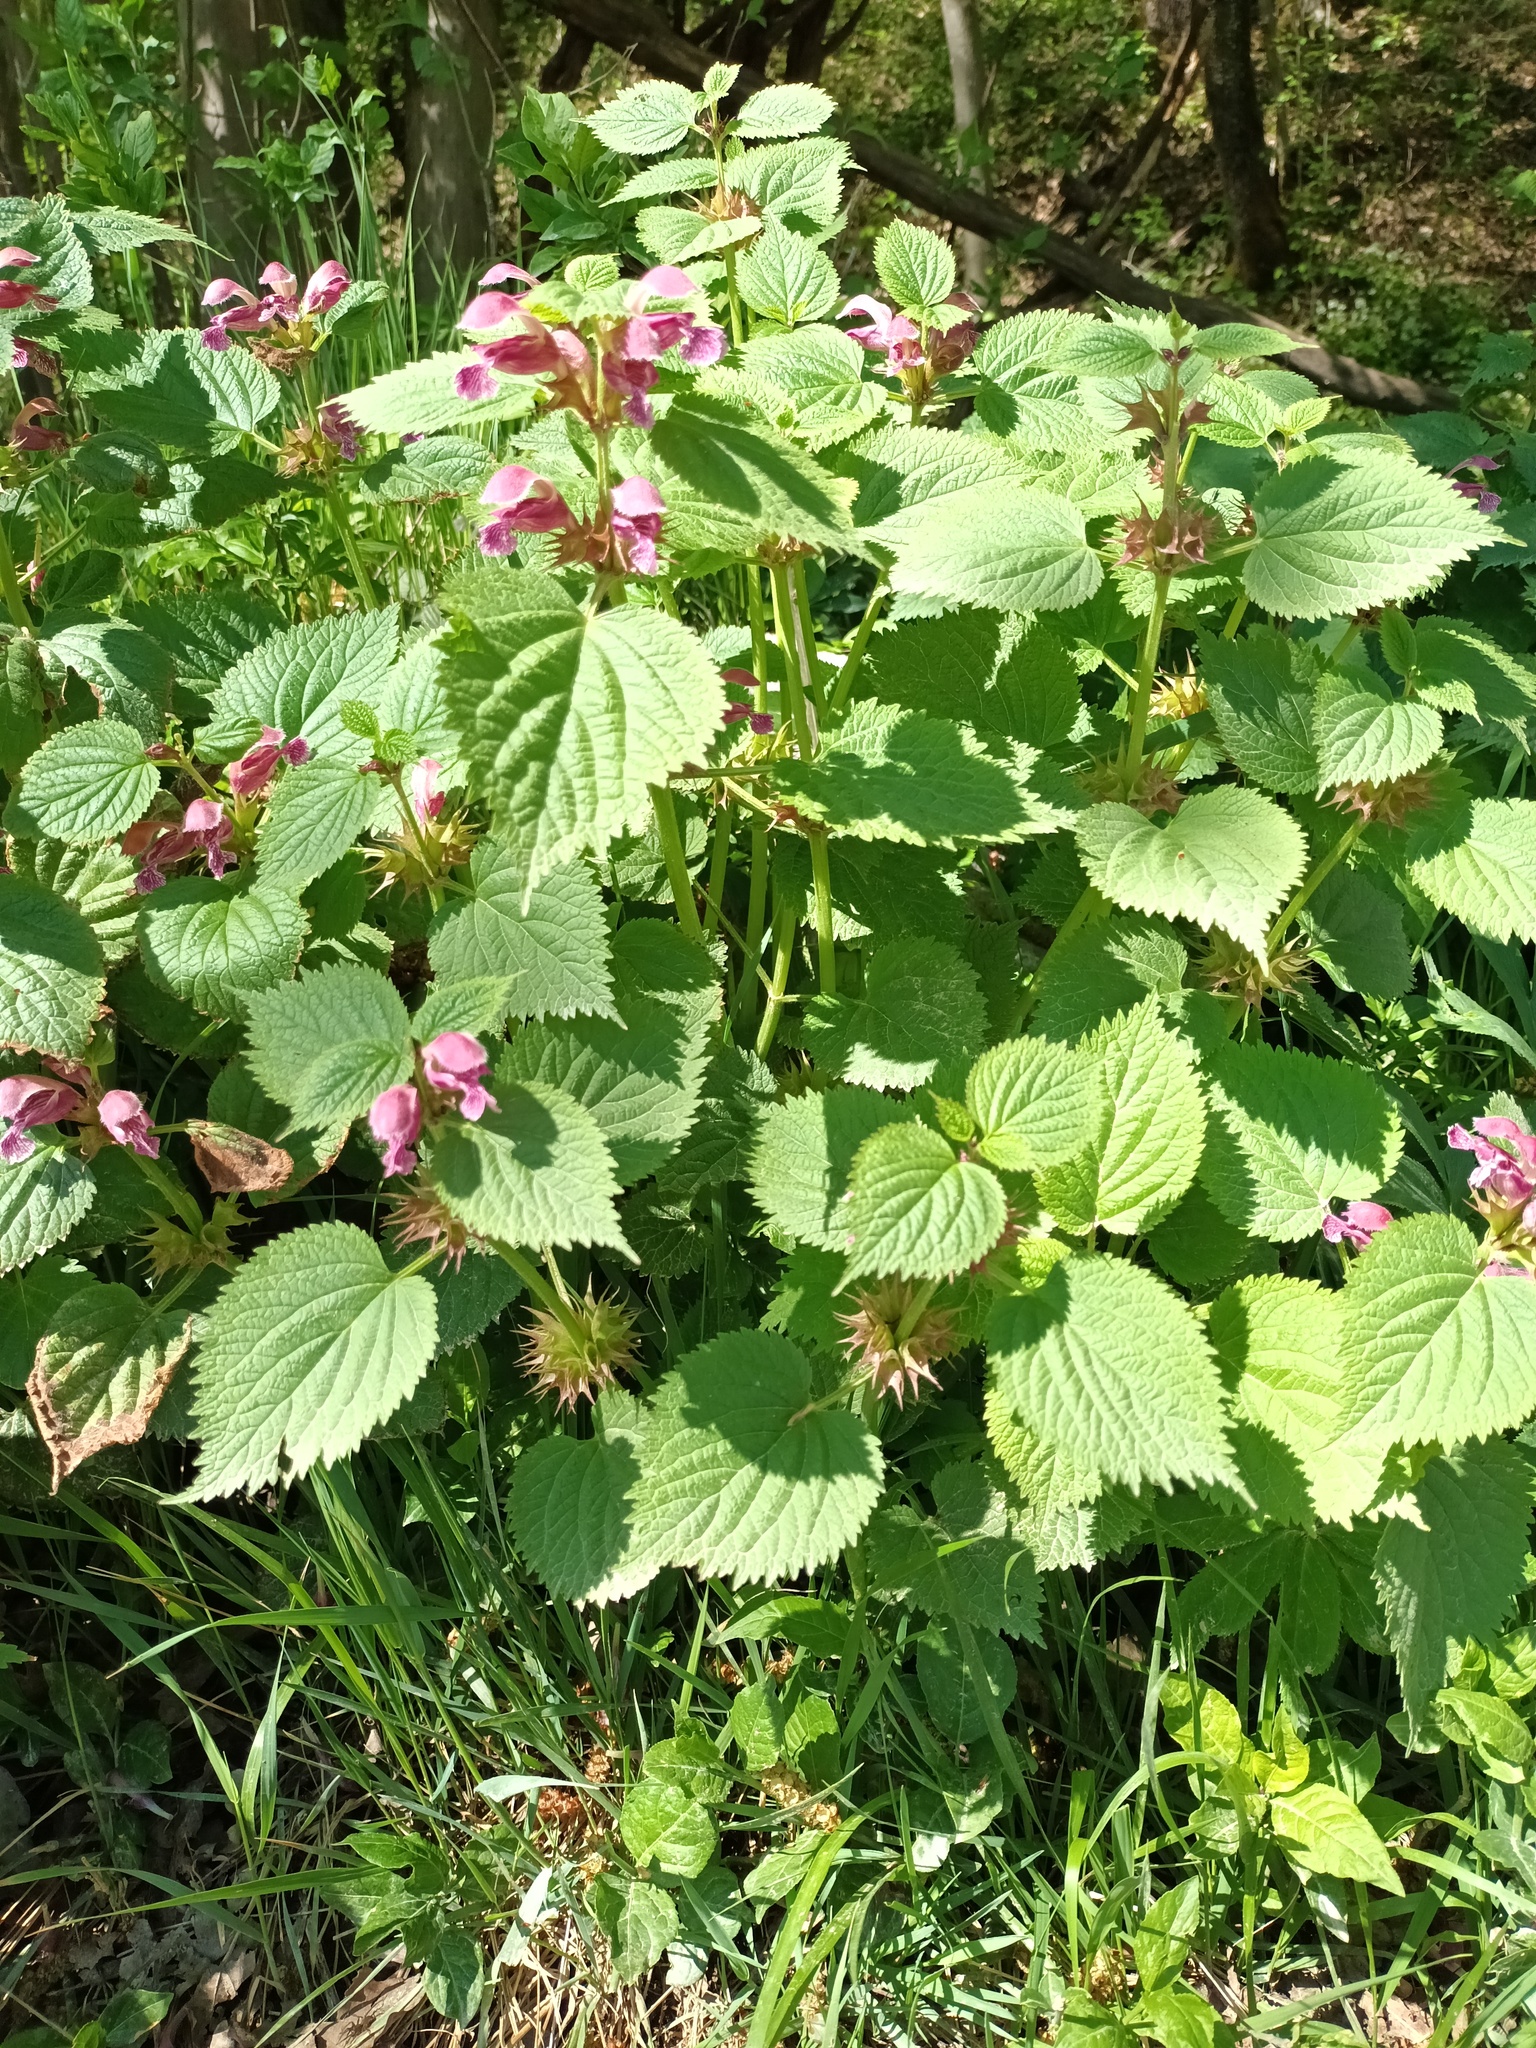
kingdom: Plantae
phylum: Tracheophyta
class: Magnoliopsida
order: Lamiales
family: Lamiaceae
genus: Lamium
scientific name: Lamium orvala
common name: Balm-leaved archangel
